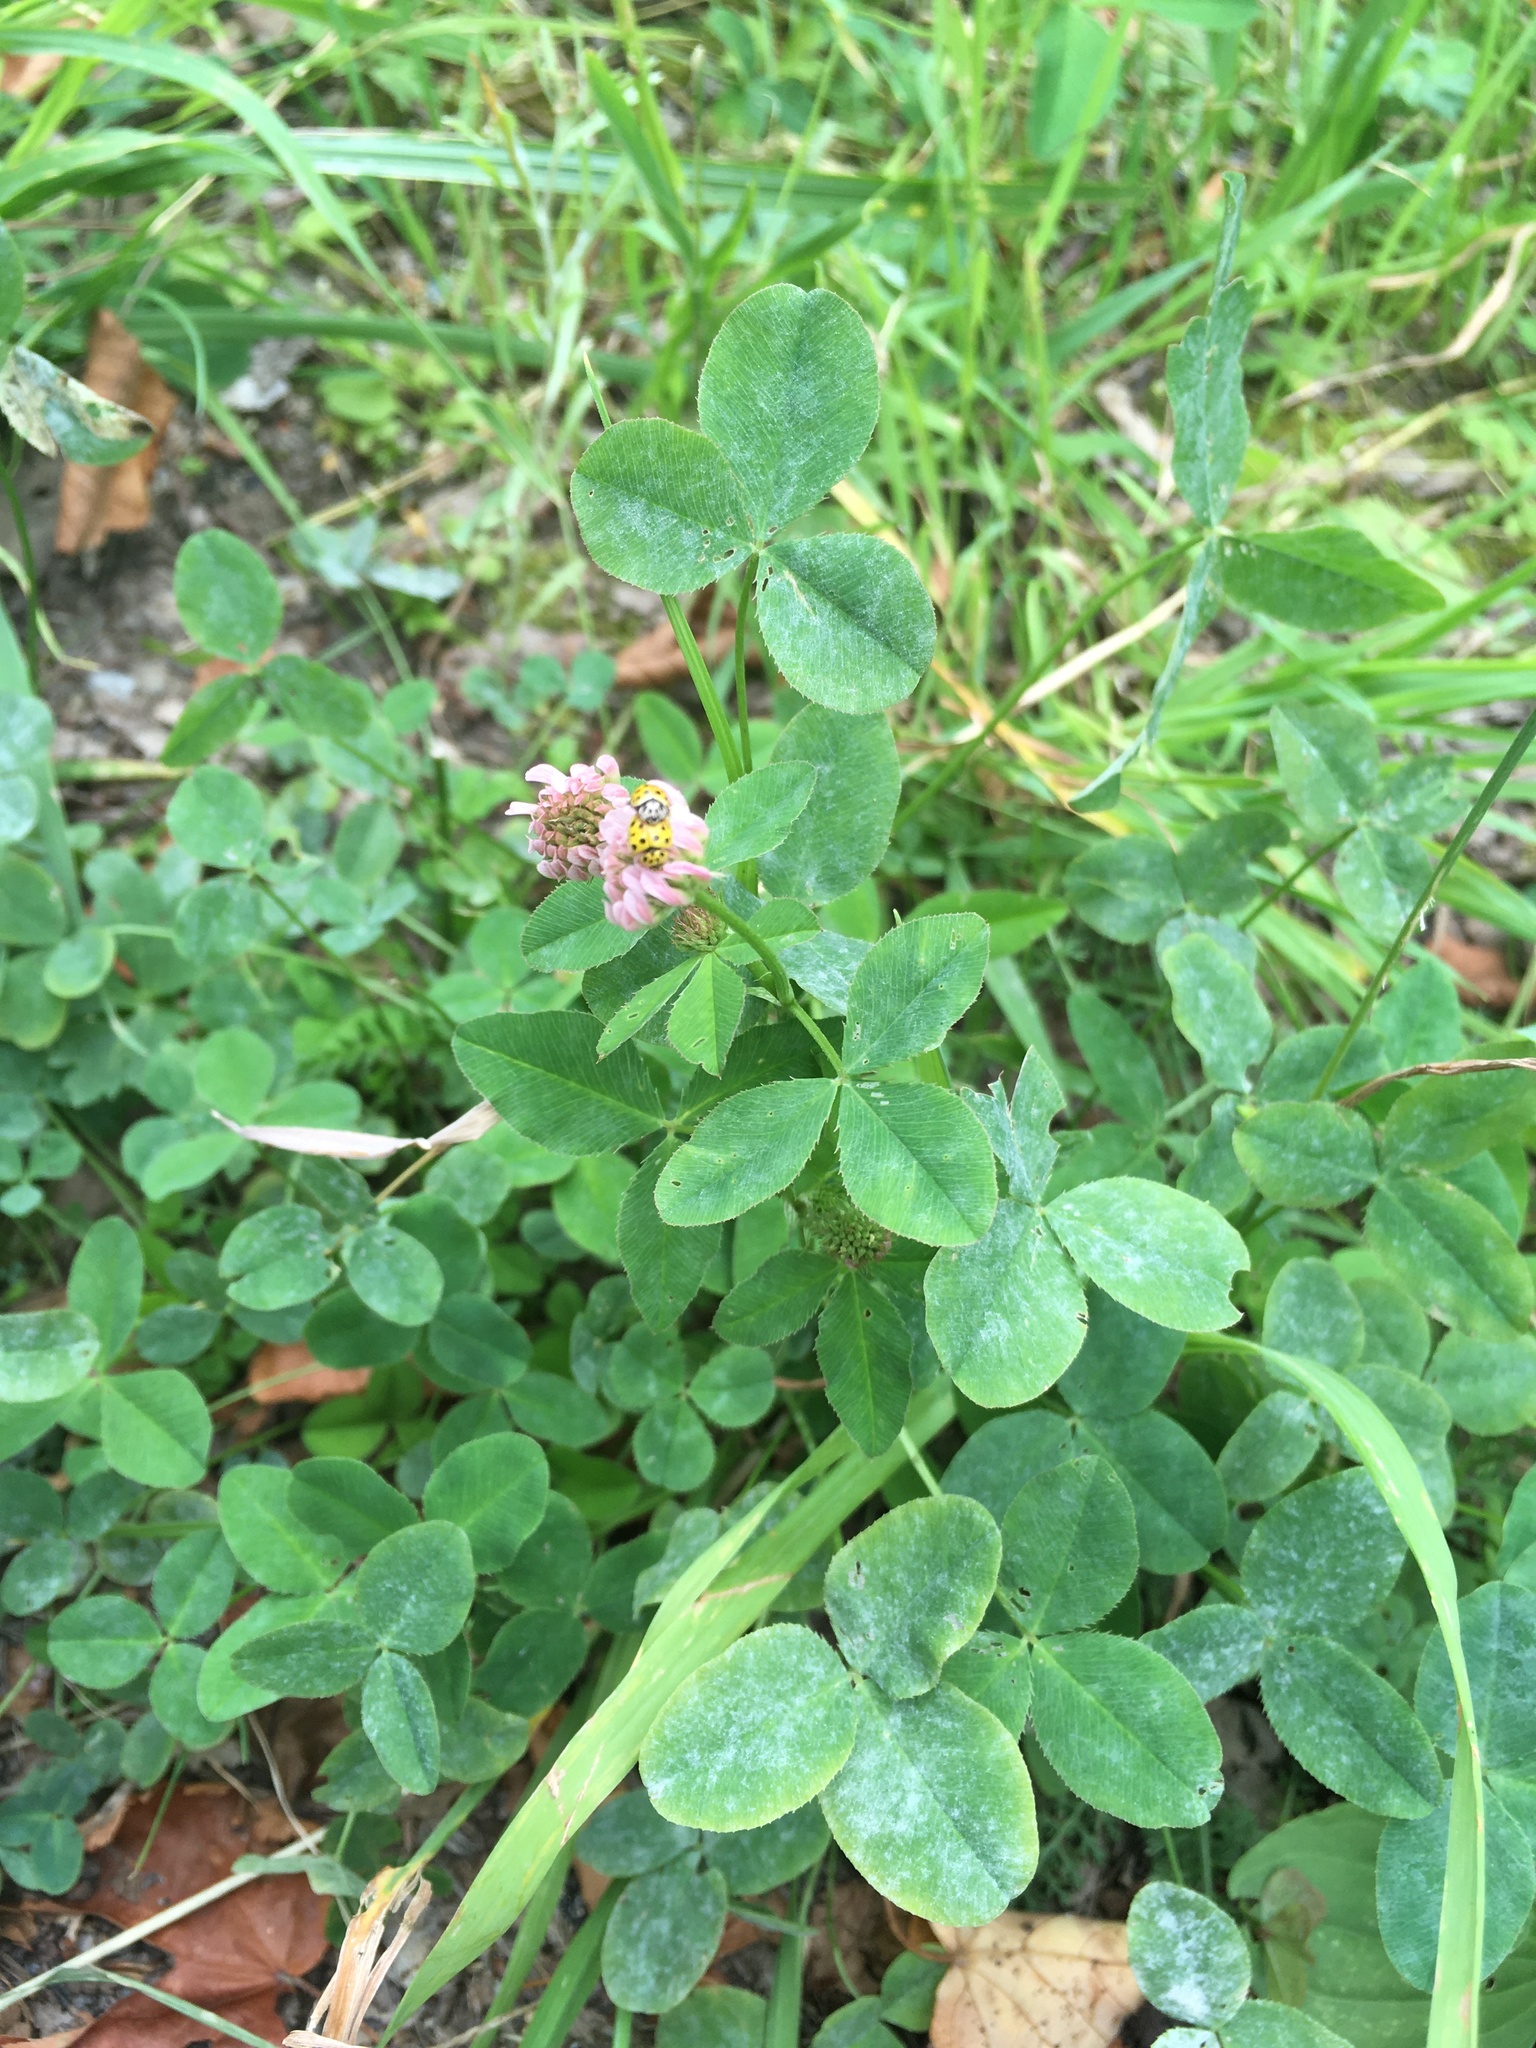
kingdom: Plantae
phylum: Tracheophyta
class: Magnoliopsida
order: Fabales
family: Fabaceae
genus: Trifolium
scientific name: Trifolium hybridum
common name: Alsike clover
